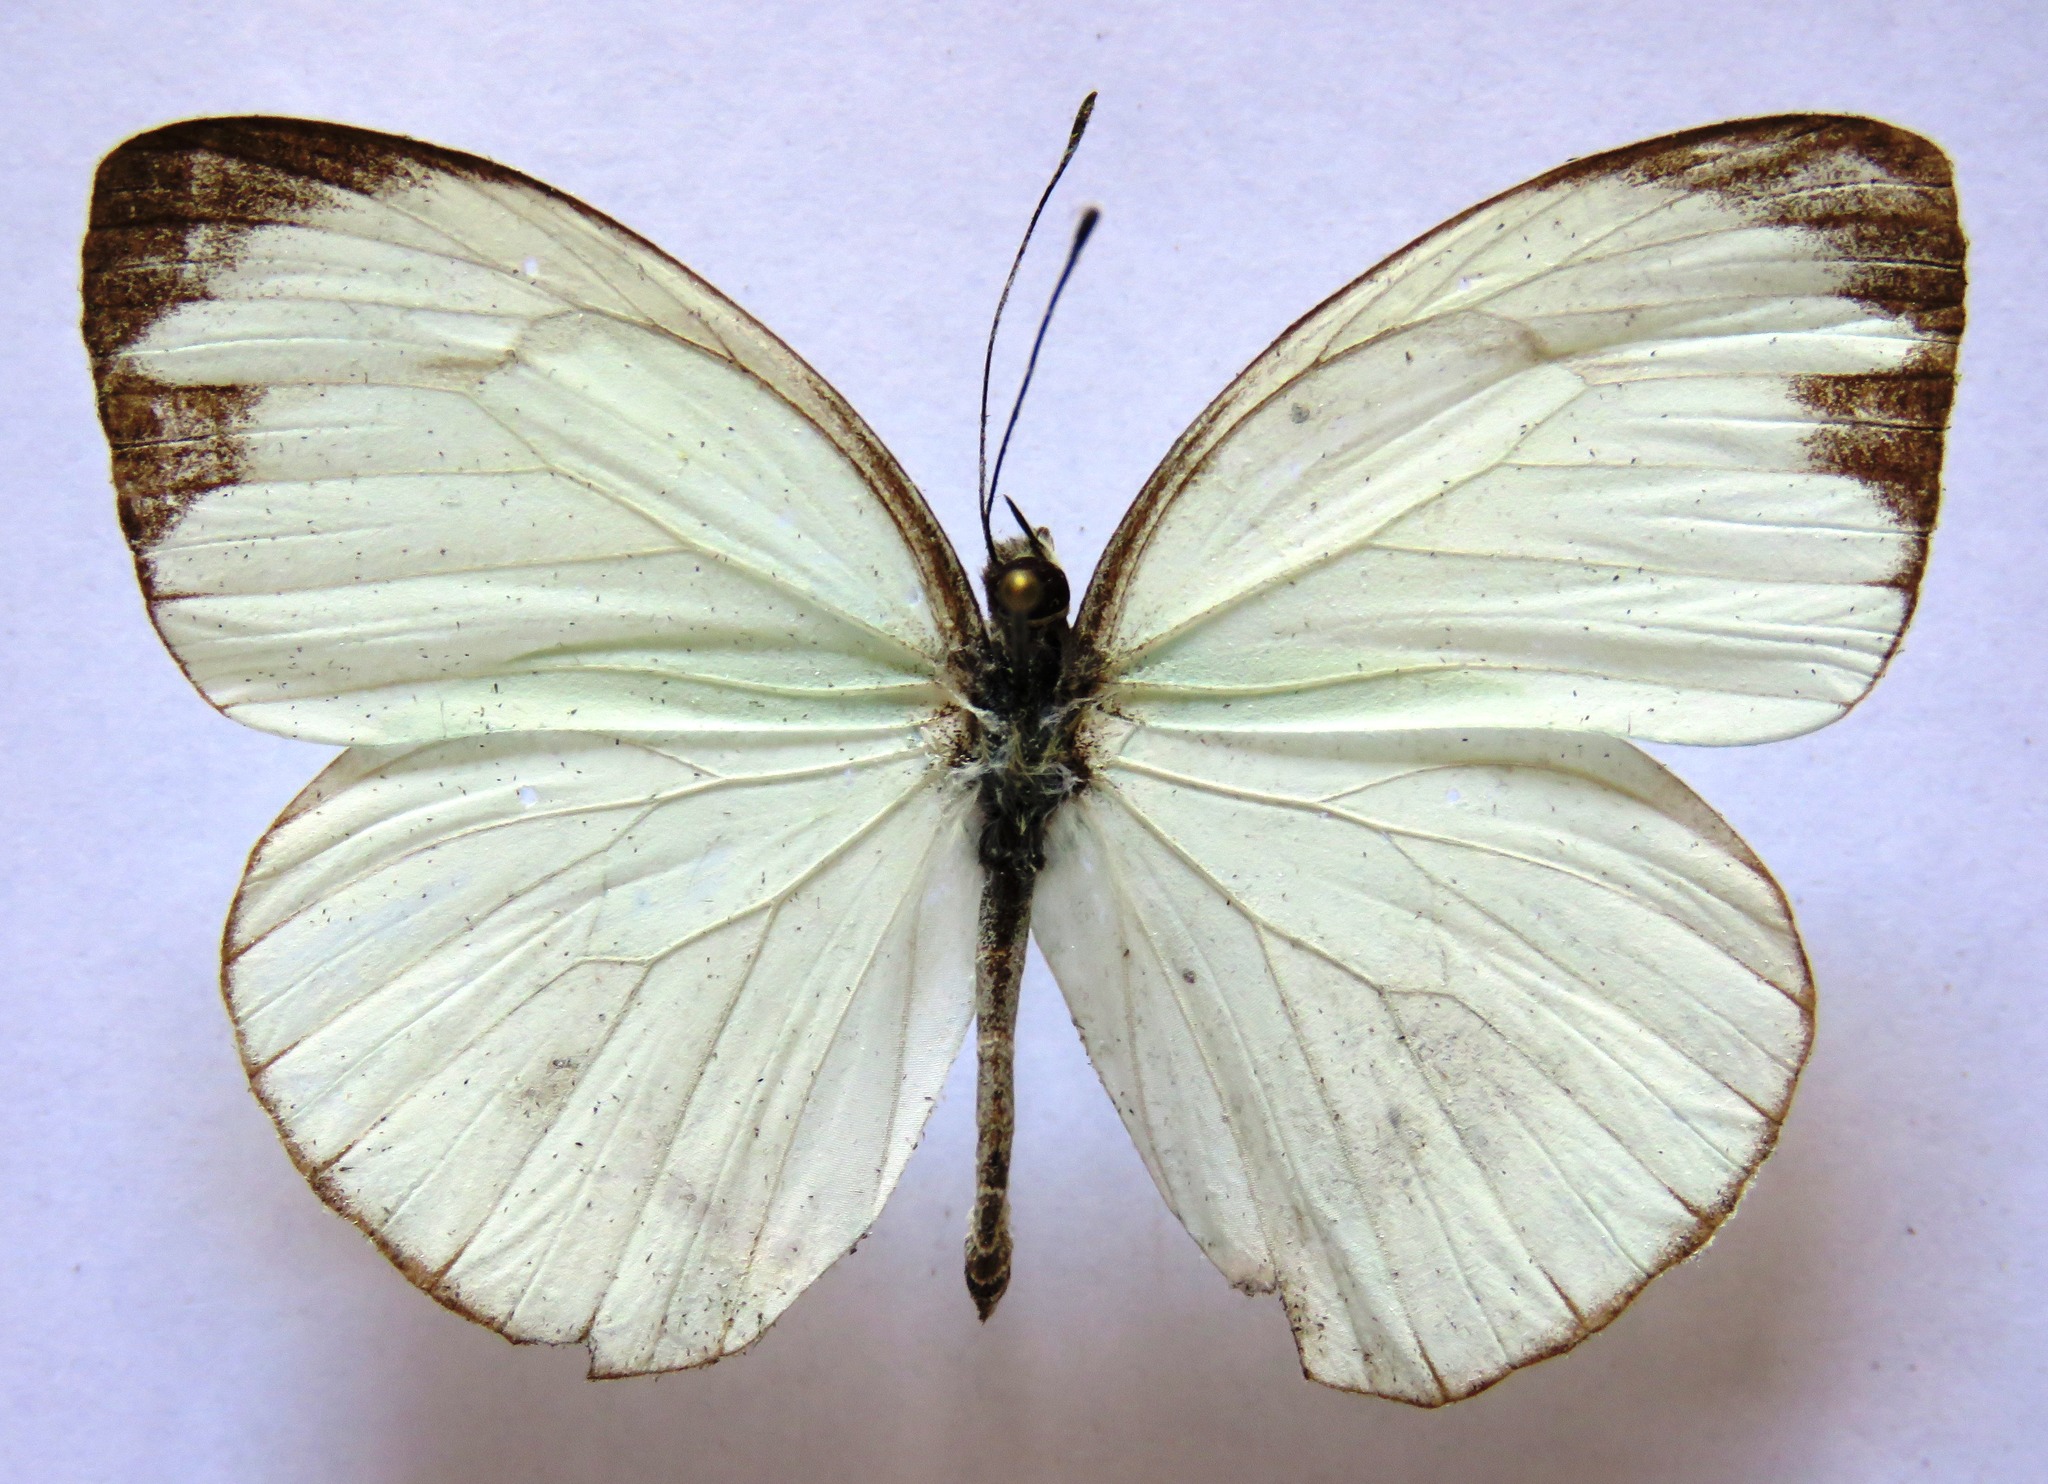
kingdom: Animalia
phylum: Arthropoda
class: Insecta
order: Lepidoptera
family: Pieridae
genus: Itaballia
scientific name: Itaballia demophile
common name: Cross-barred white
